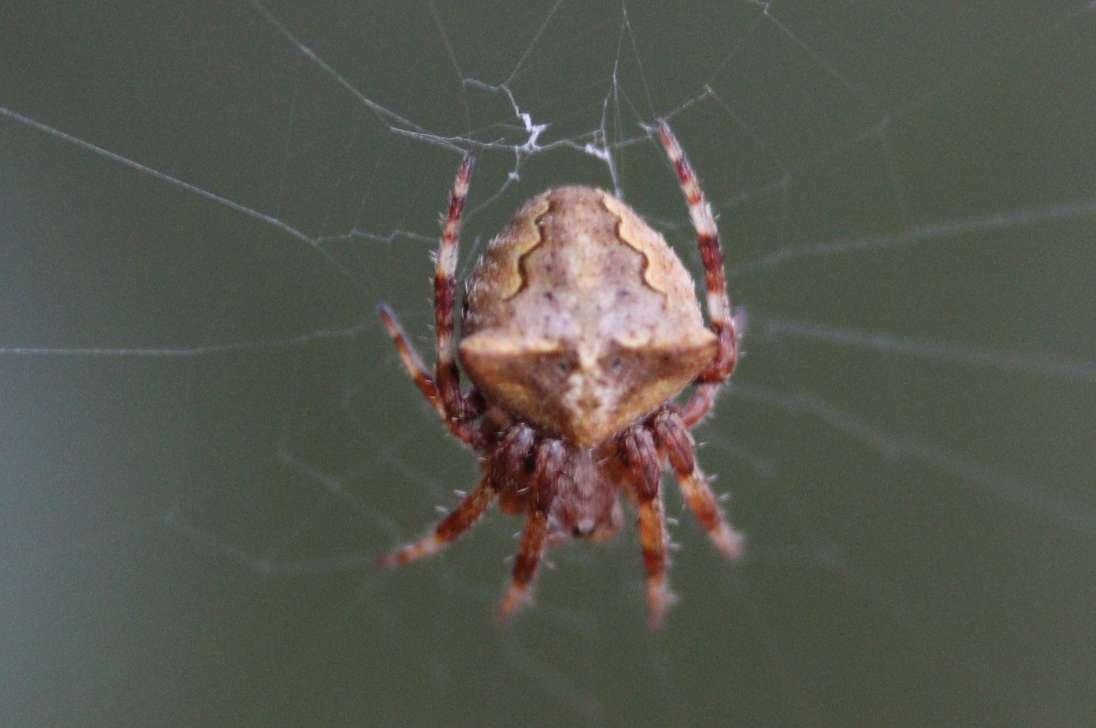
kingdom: Animalia
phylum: Arthropoda
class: Arachnida
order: Araneae
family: Araneidae
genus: Araneus
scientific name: Araneus angulatus
